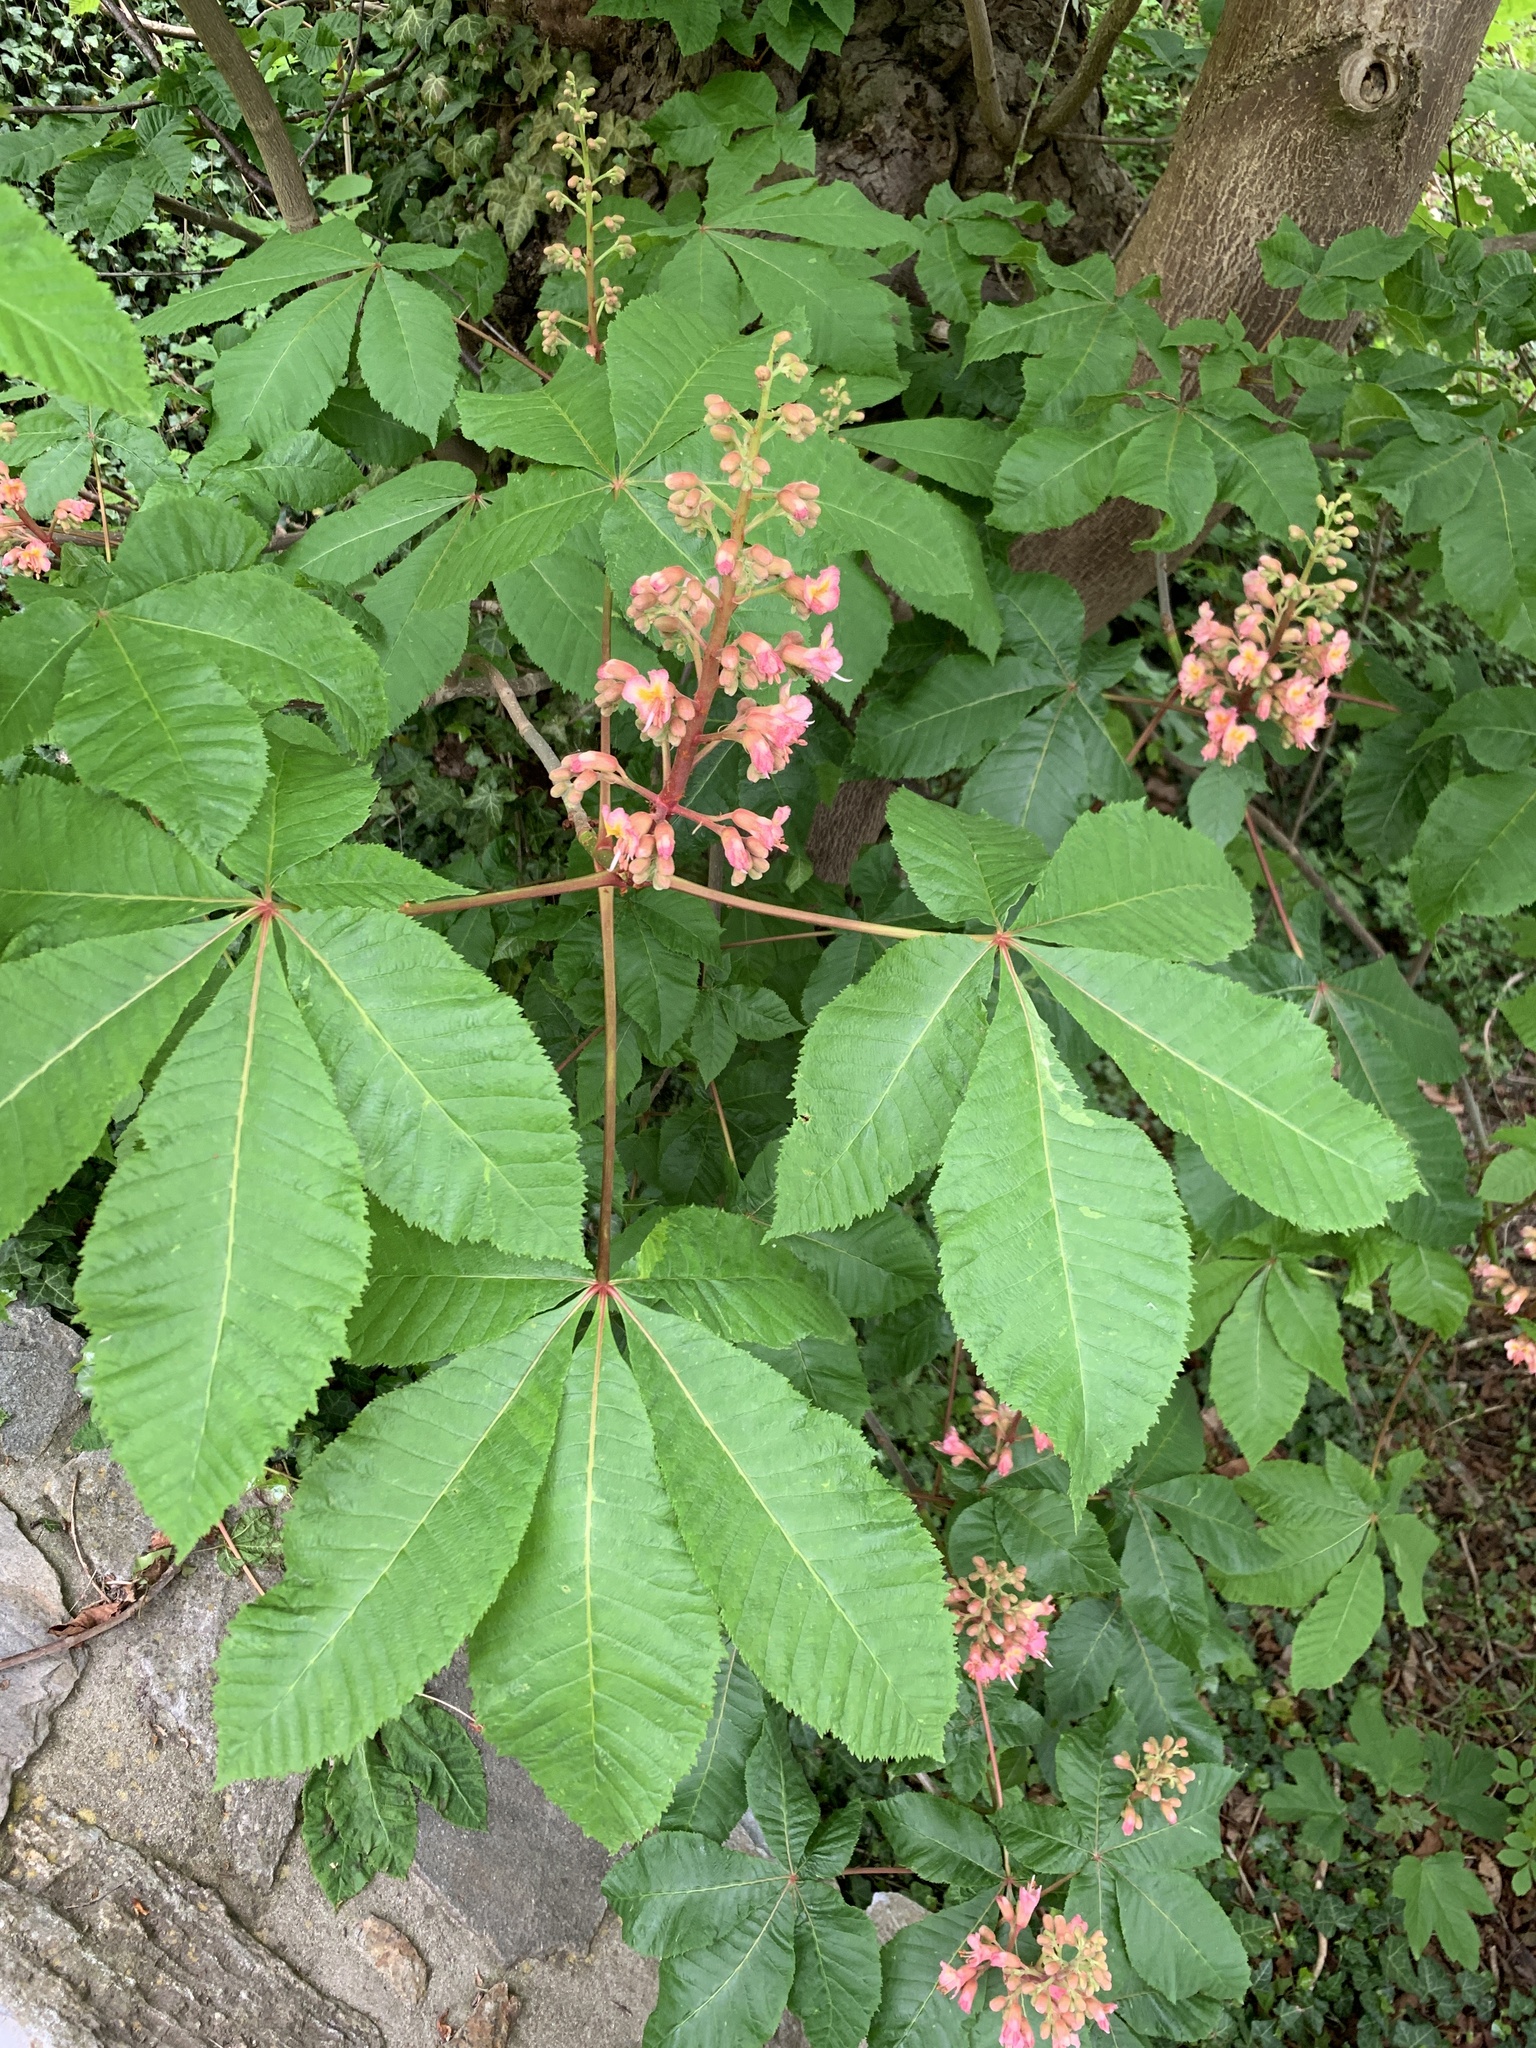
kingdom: Plantae
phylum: Tracheophyta
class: Magnoliopsida
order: Sapindales
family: Sapindaceae
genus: Aesculus
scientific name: Aesculus carnea
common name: Red horse-chestnut
